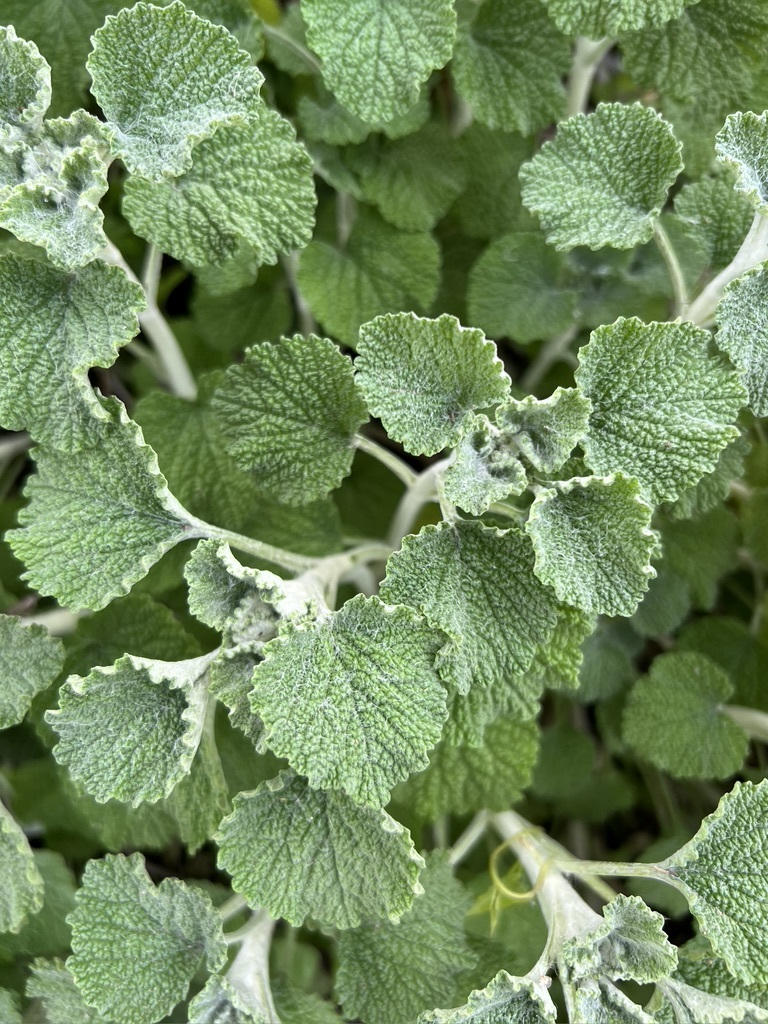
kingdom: Plantae
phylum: Tracheophyta
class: Magnoliopsida
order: Lamiales
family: Lamiaceae
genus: Marrubium
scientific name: Marrubium vulgare
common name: Horehound
